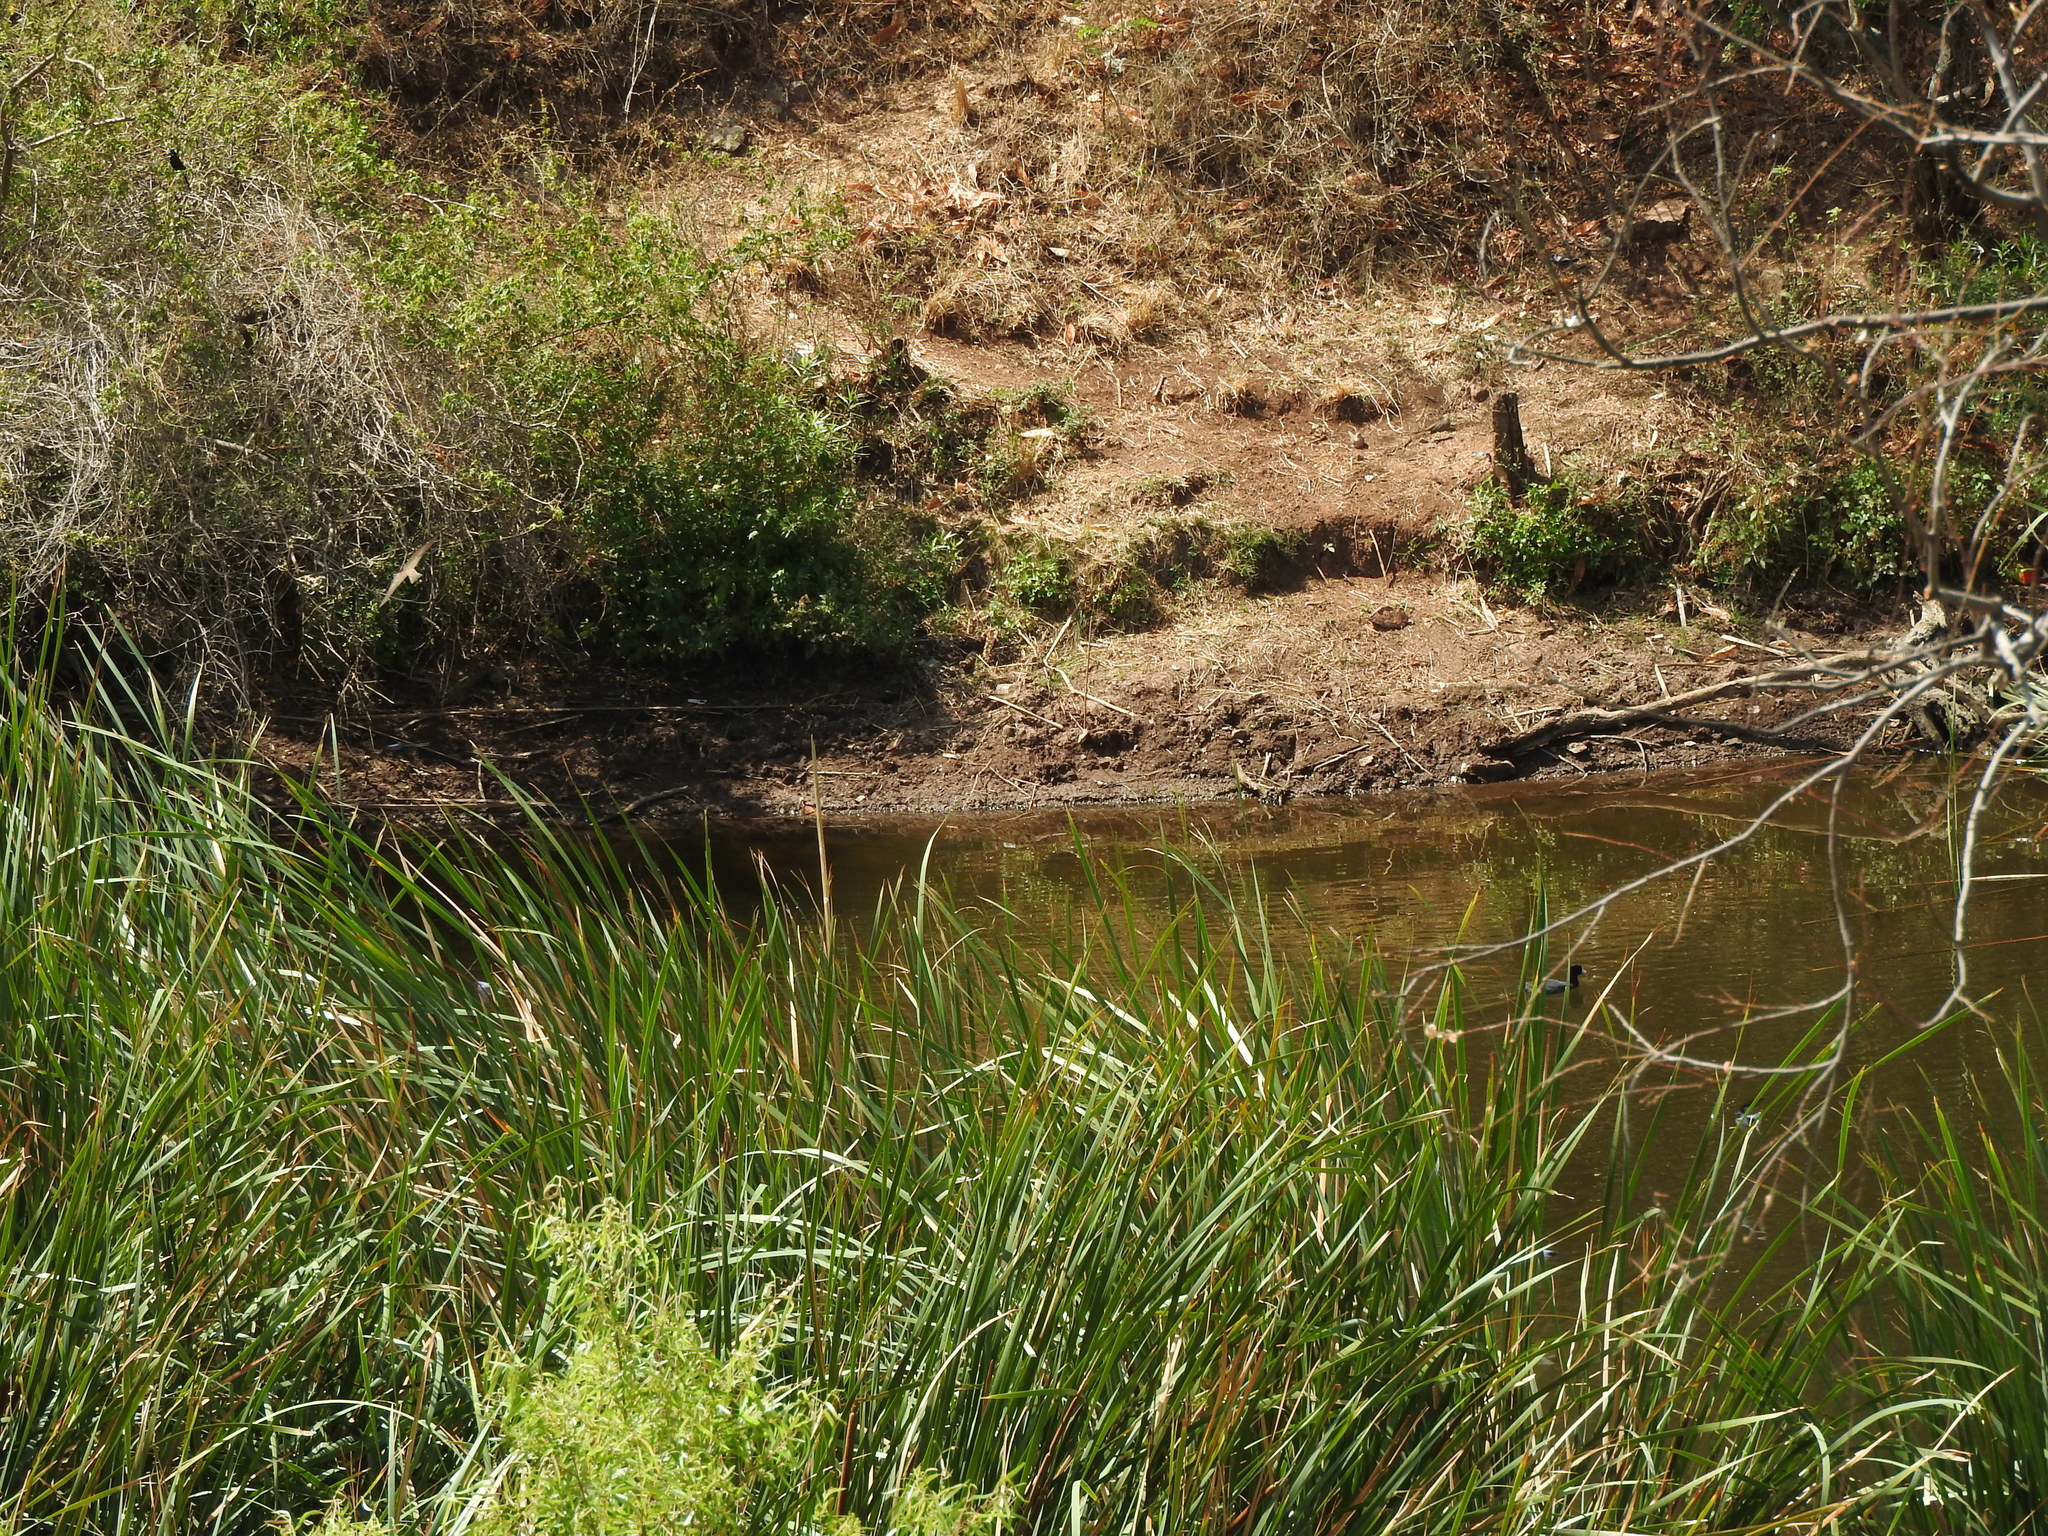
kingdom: Animalia
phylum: Chordata
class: Aves
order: Gruiformes
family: Rallidae
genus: Fulica
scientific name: Fulica americana
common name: American coot
